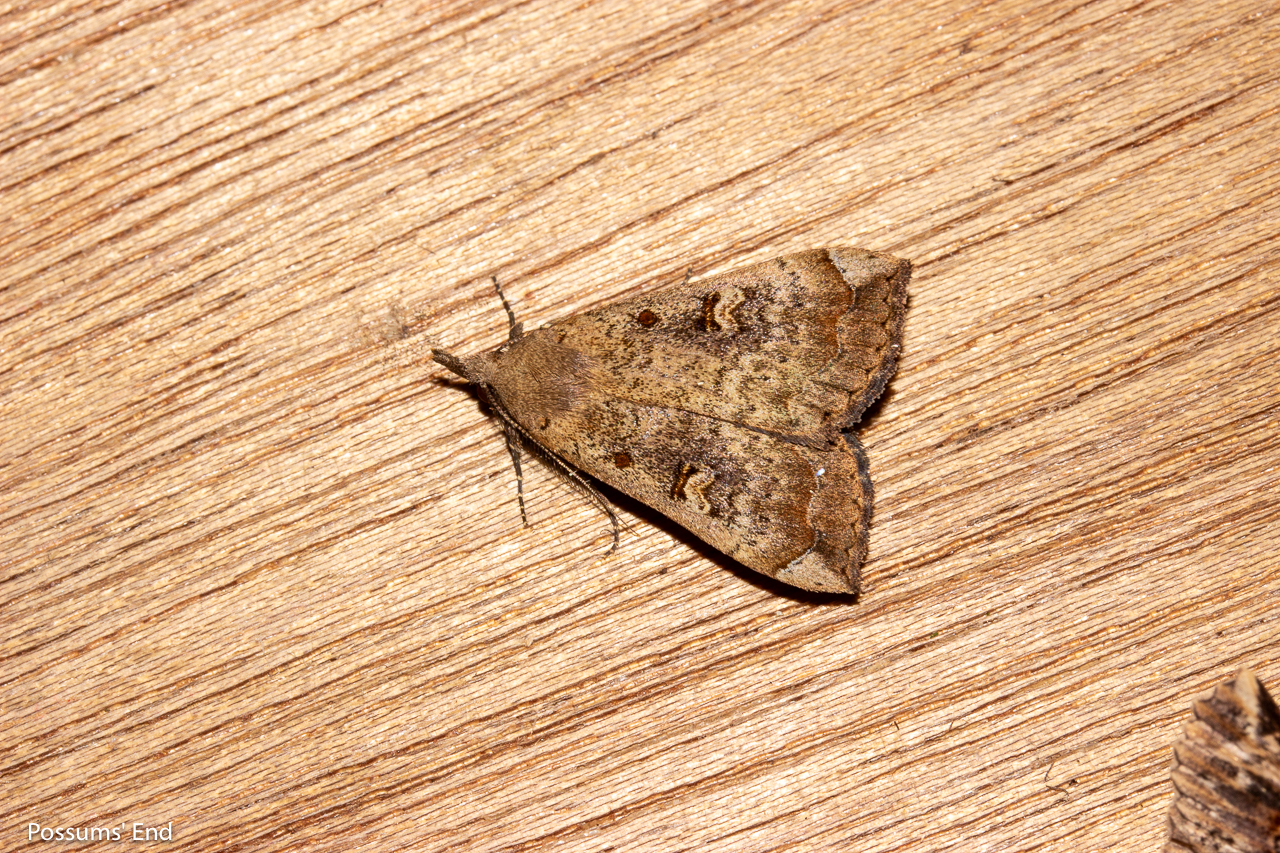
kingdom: Animalia
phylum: Arthropoda
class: Insecta
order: Lepidoptera
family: Erebidae
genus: Rhapsa
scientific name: Rhapsa scotosialis
